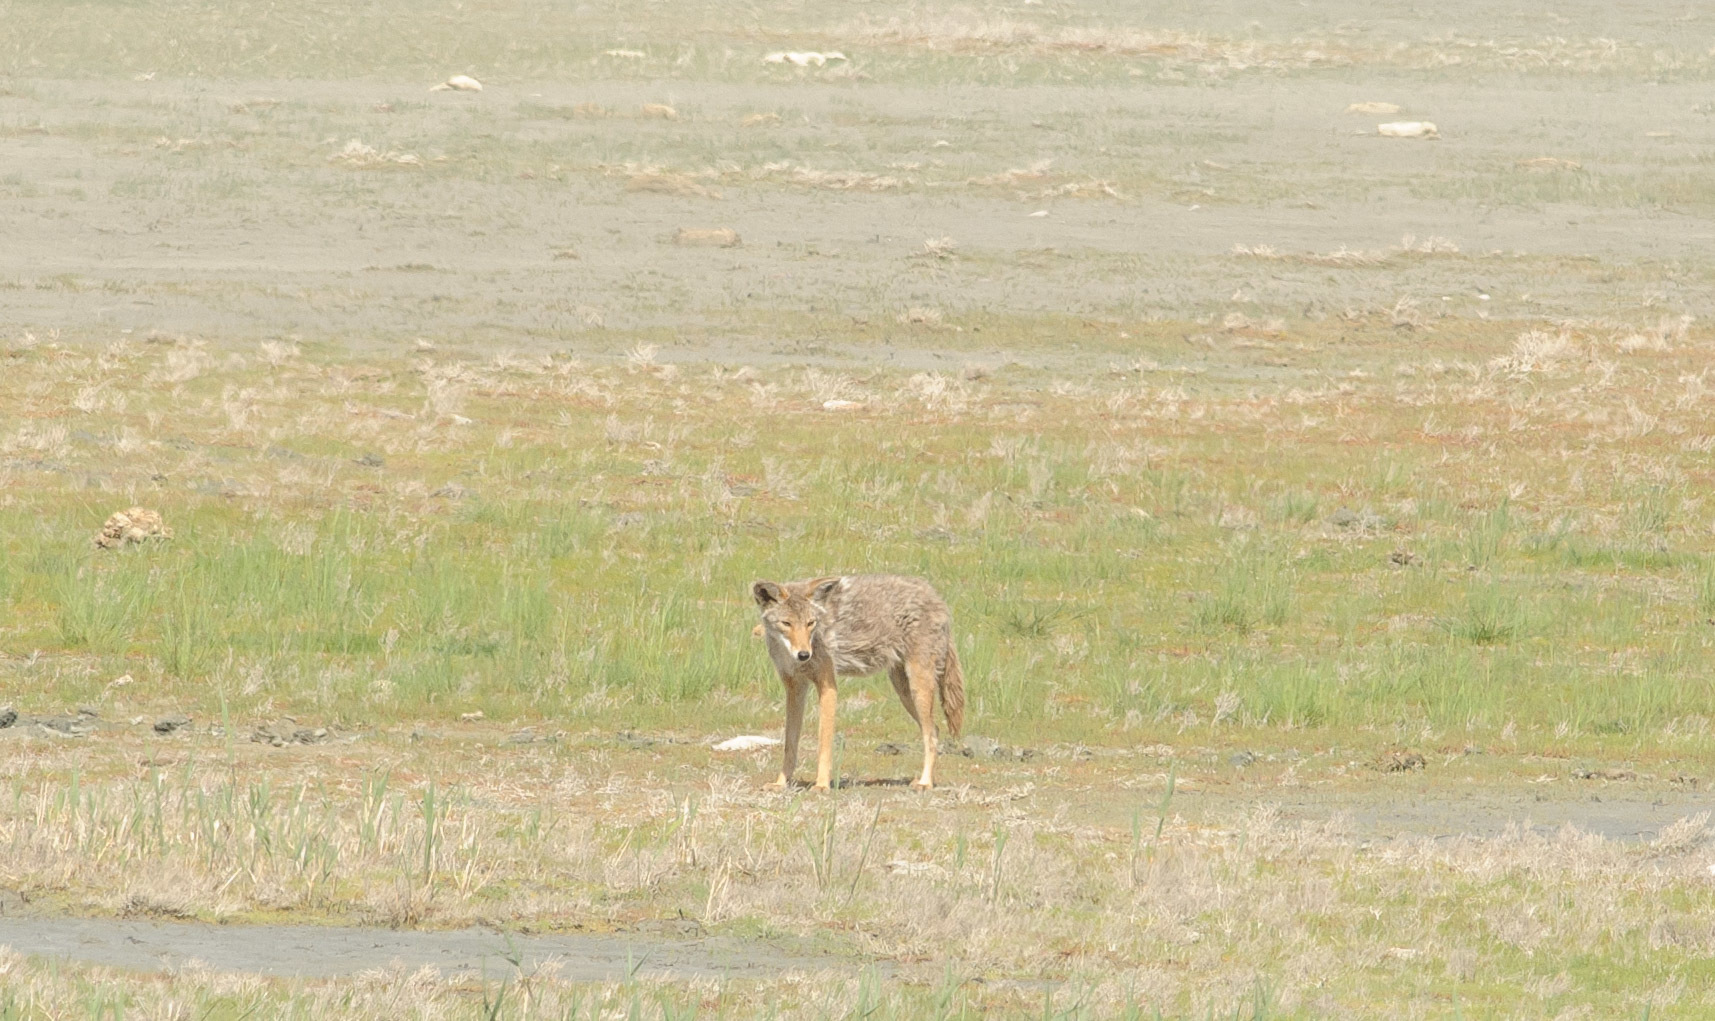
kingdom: Animalia
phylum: Chordata
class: Mammalia
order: Carnivora
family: Canidae
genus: Canis
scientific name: Canis latrans
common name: Coyote
